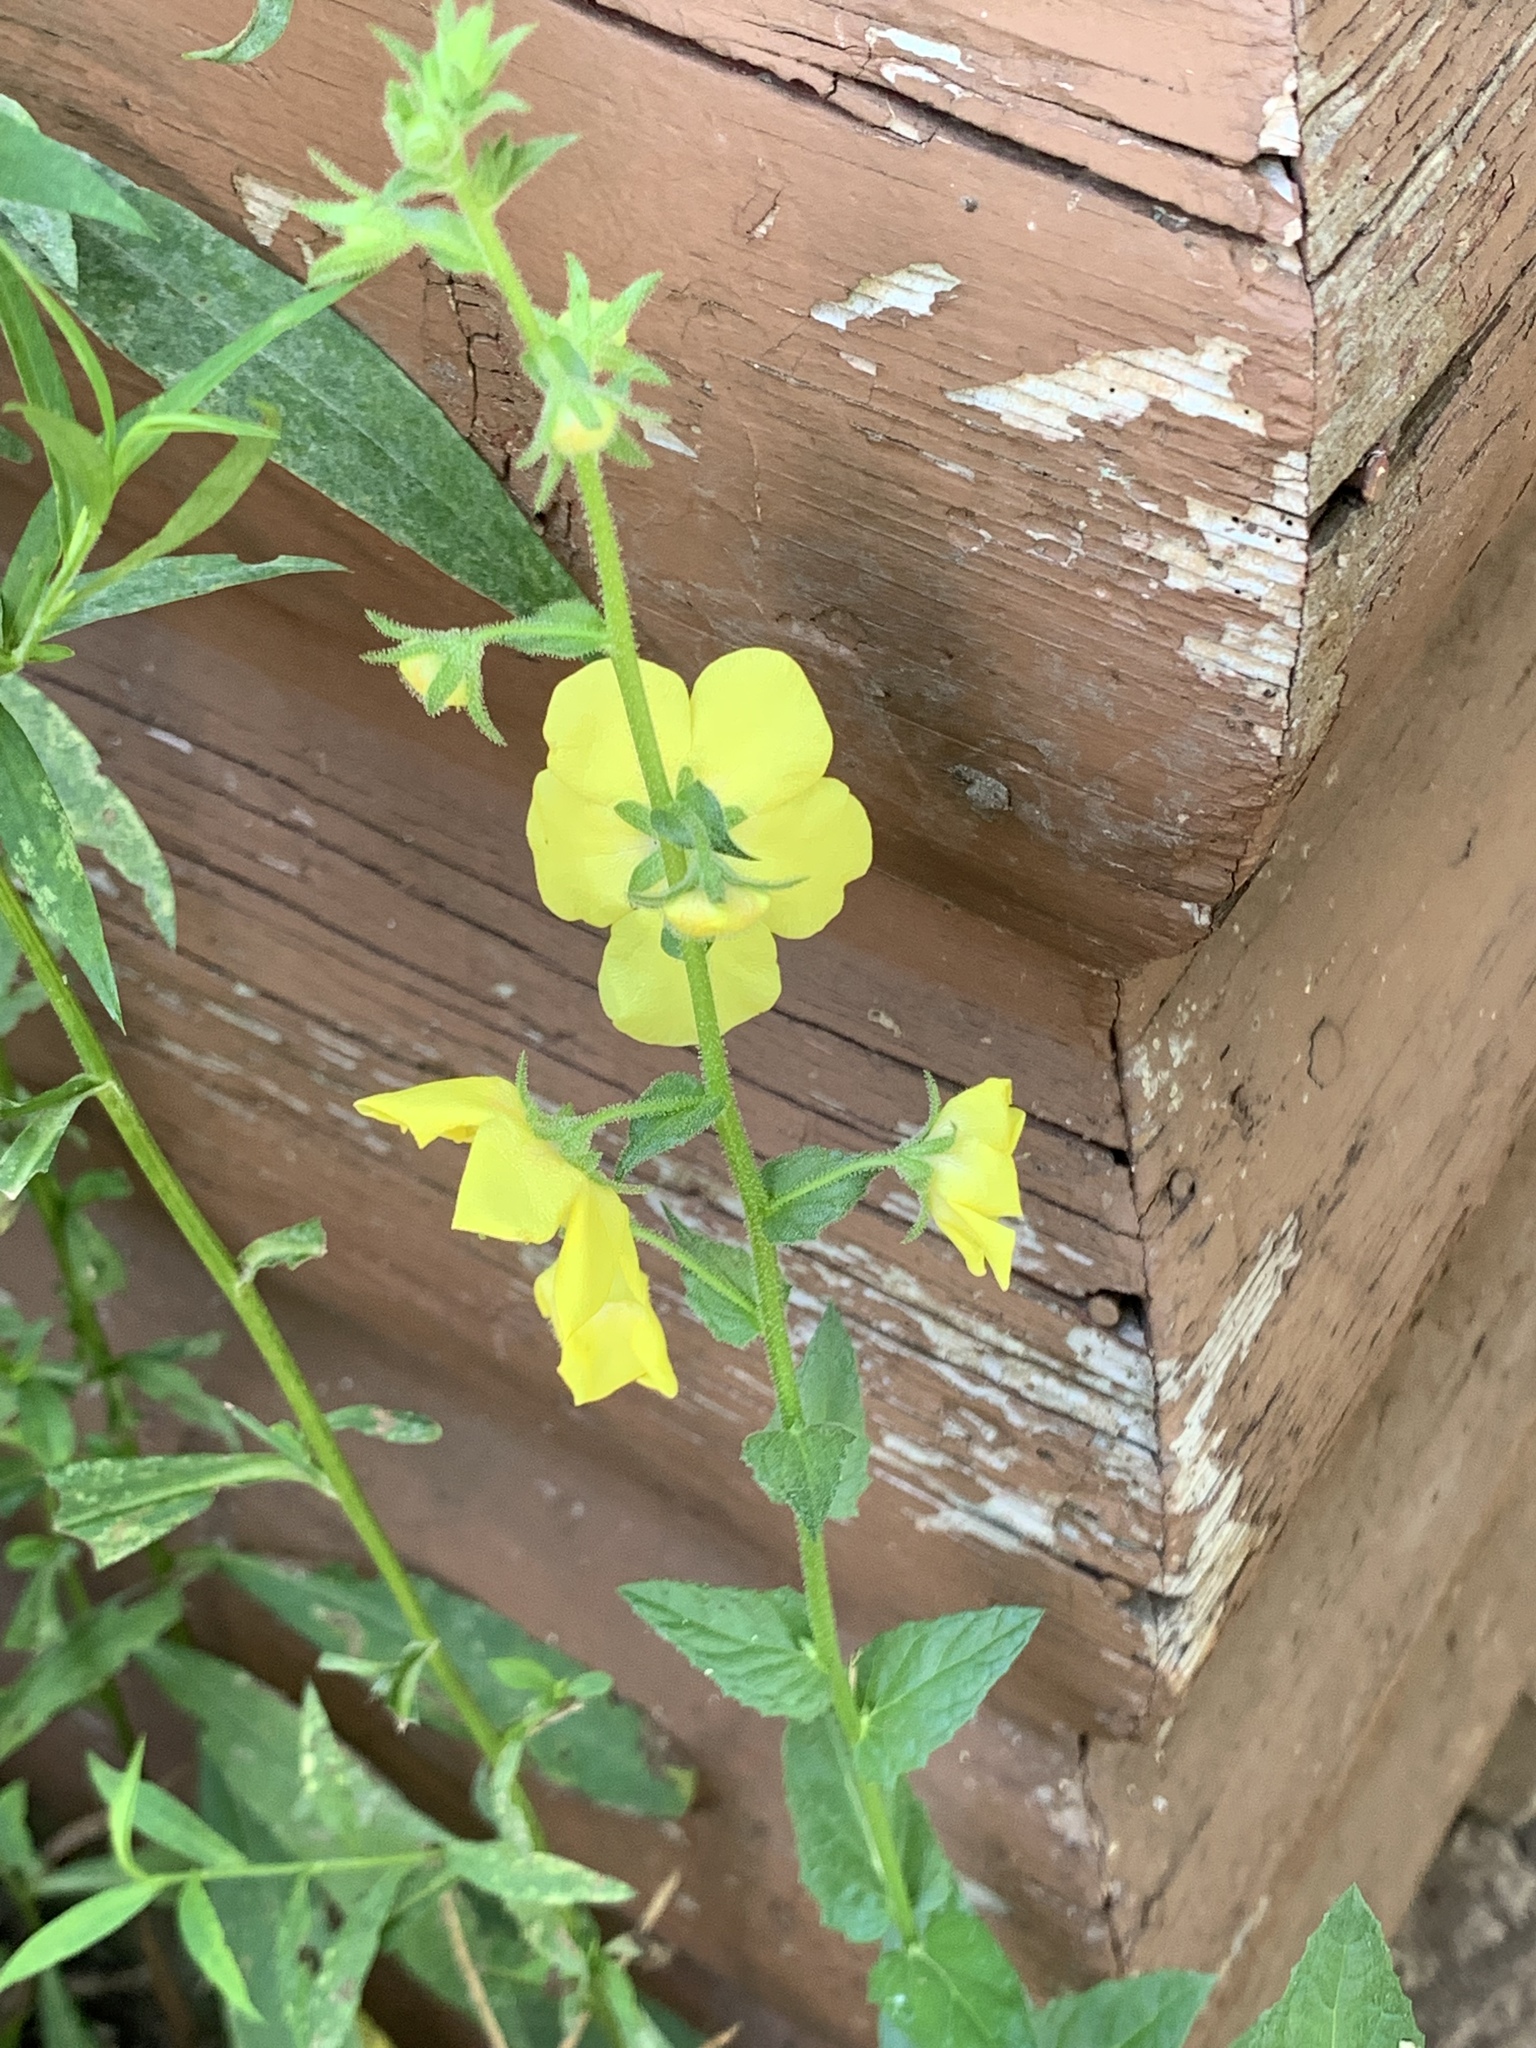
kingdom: Plantae
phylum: Tracheophyta
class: Magnoliopsida
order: Lamiales
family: Scrophulariaceae
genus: Verbascum
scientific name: Verbascum blattaria
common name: Moth mullein
